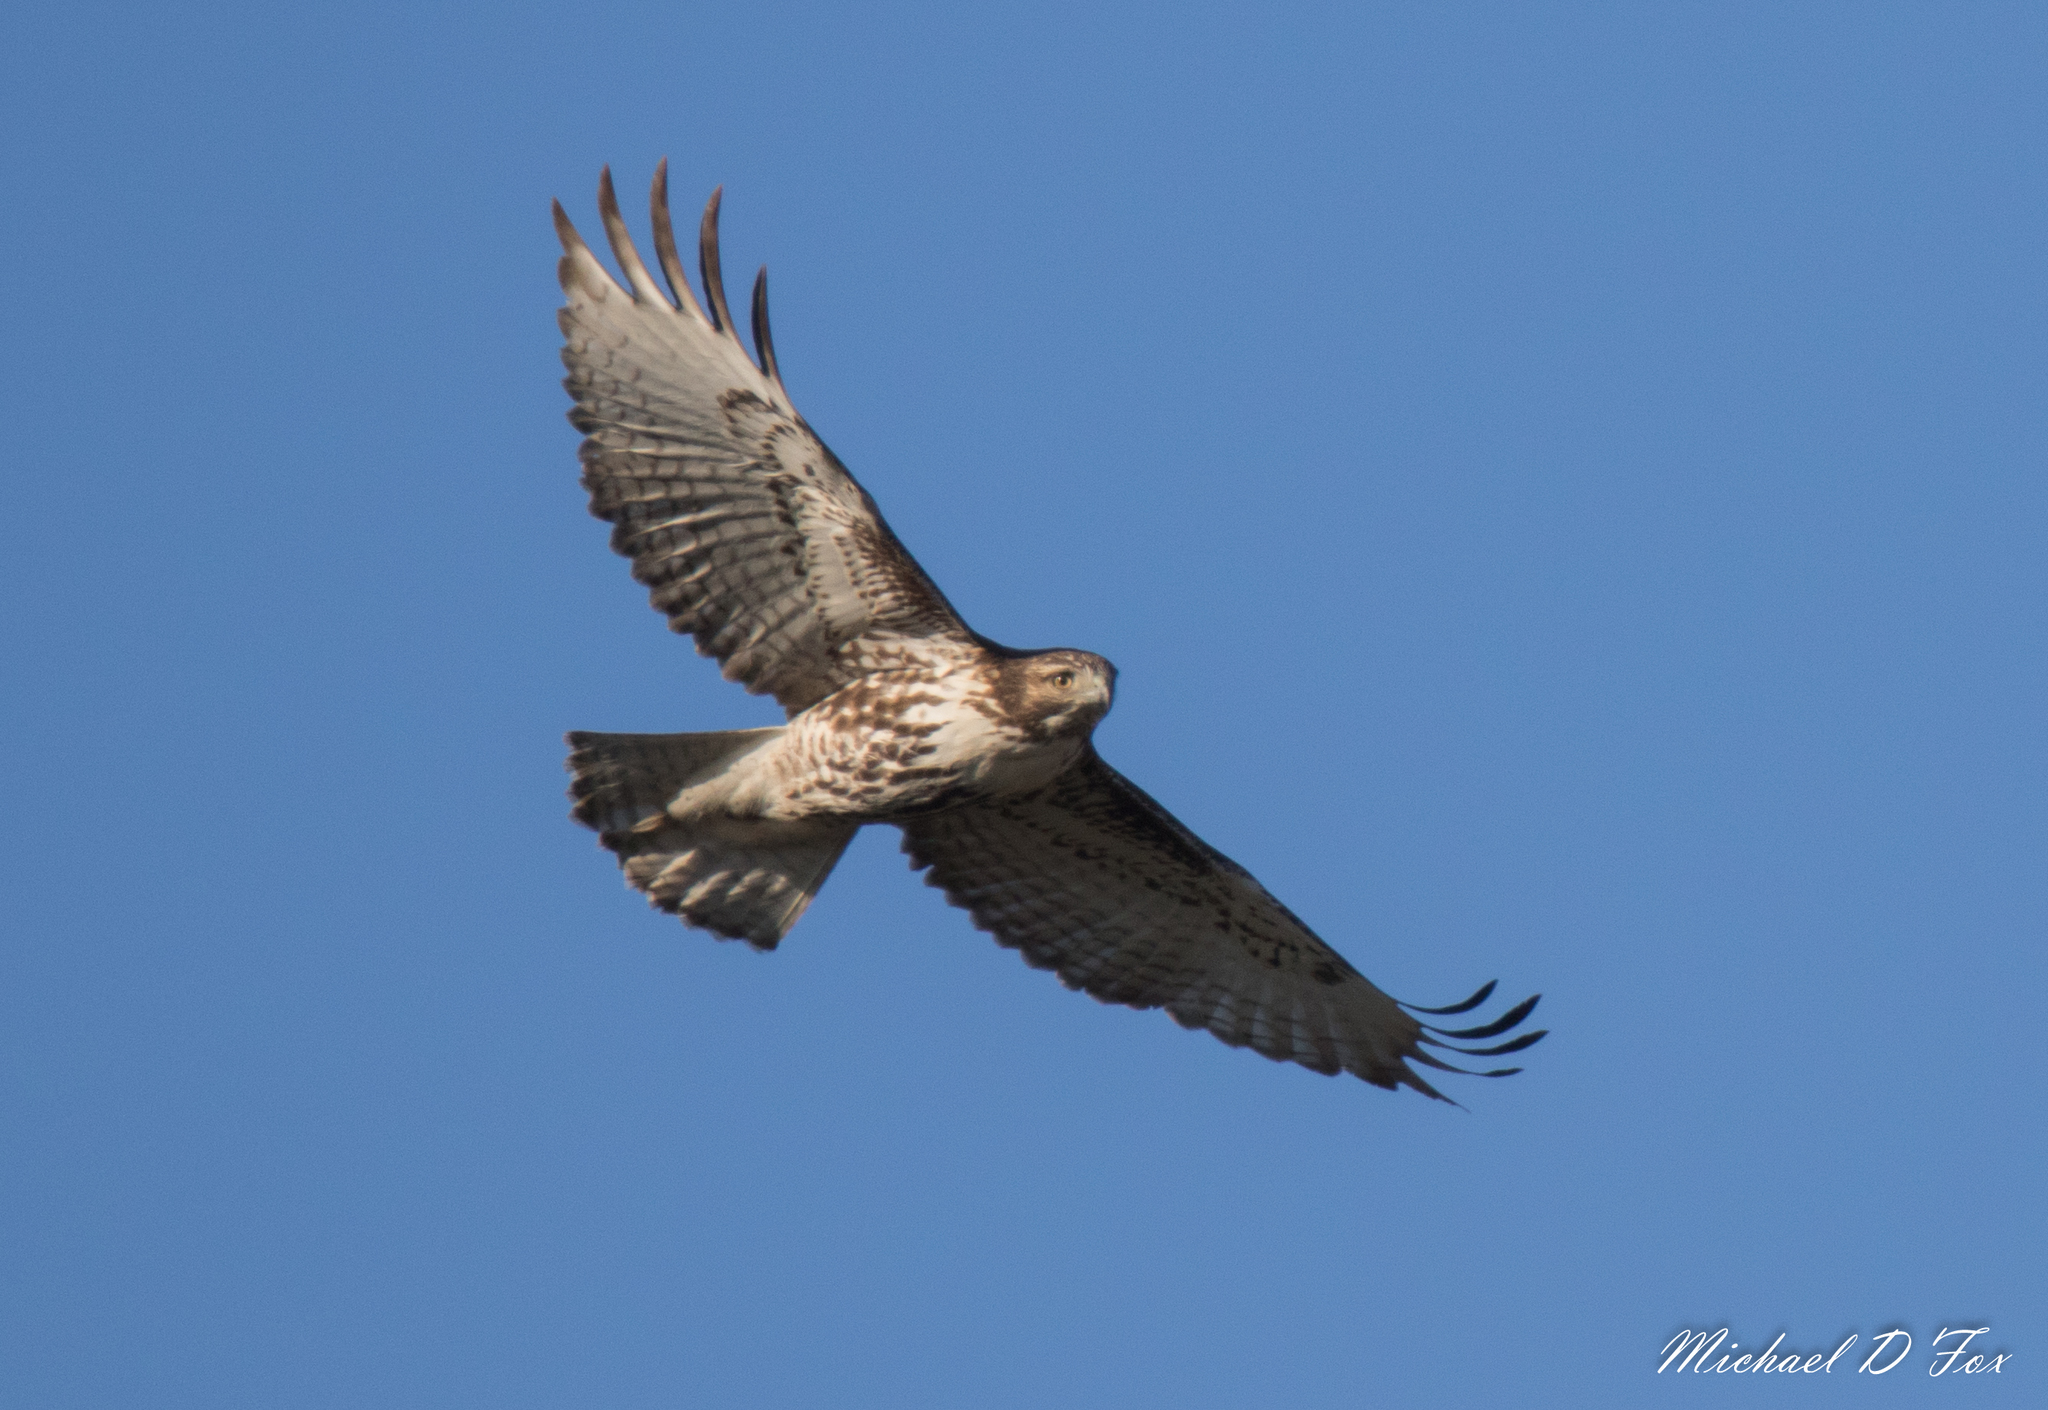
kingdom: Animalia
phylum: Chordata
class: Aves
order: Accipitriformes
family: Accipitridae
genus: Buteo
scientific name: Buteo jamaicensis
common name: Red-tailed hawk
